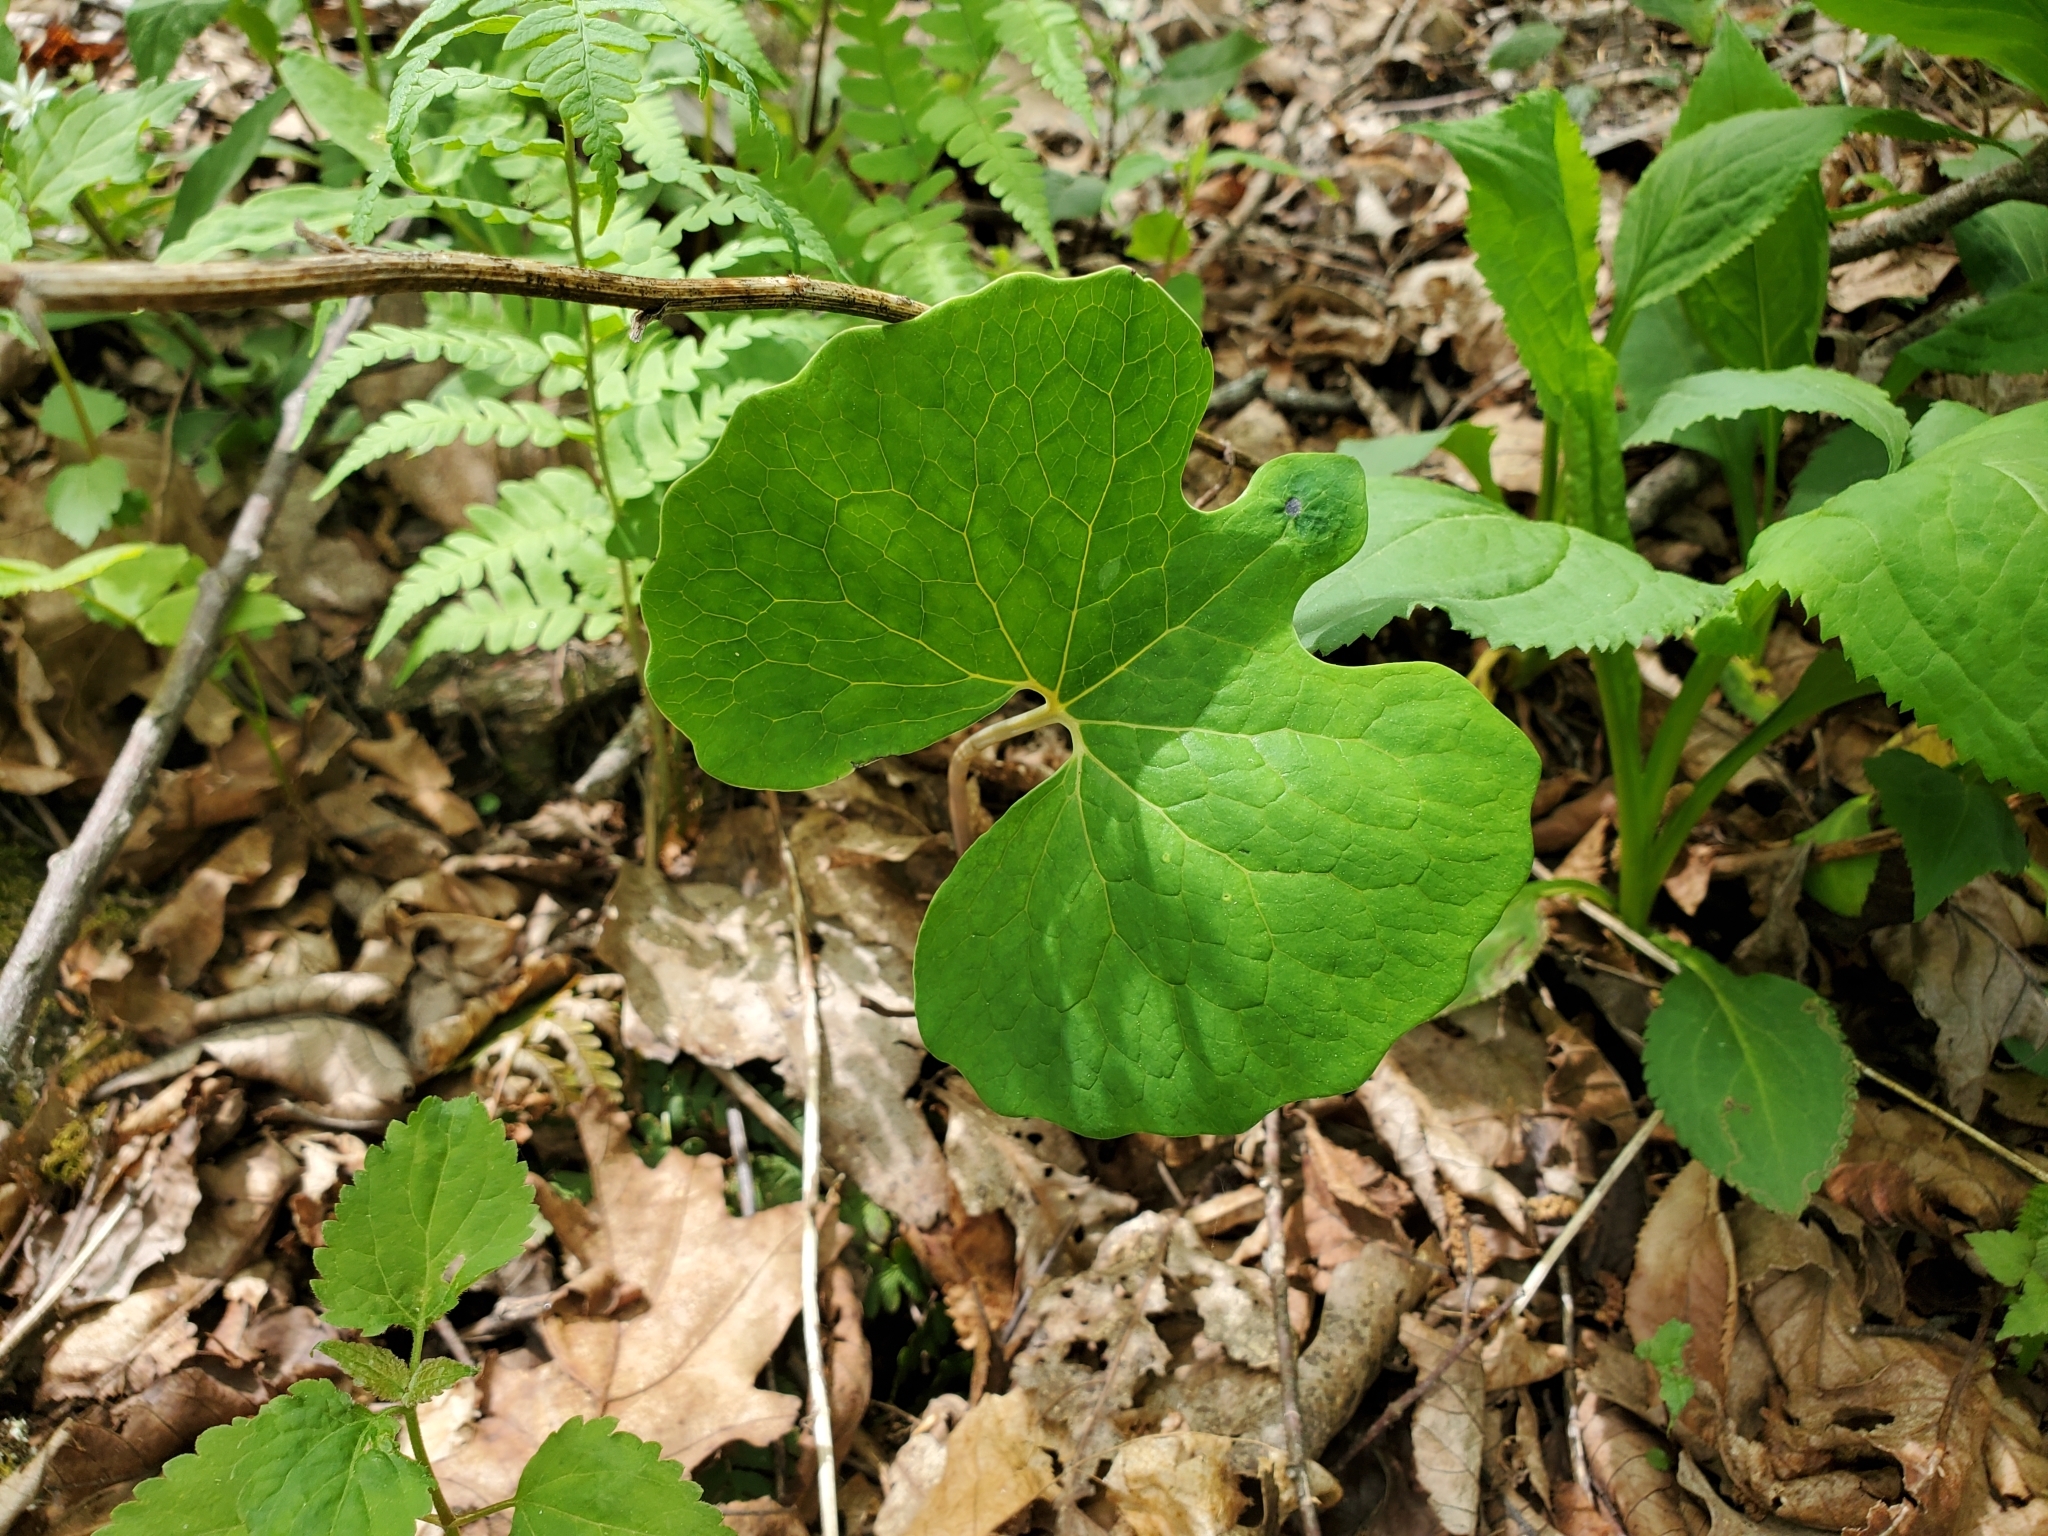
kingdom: Plantae
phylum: Tracheophyta
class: Magnoliopsida
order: Ranunculales
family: Papaveraceae
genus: Sanguinaria
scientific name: Sanguinaria canadensis
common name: Bloodroot
